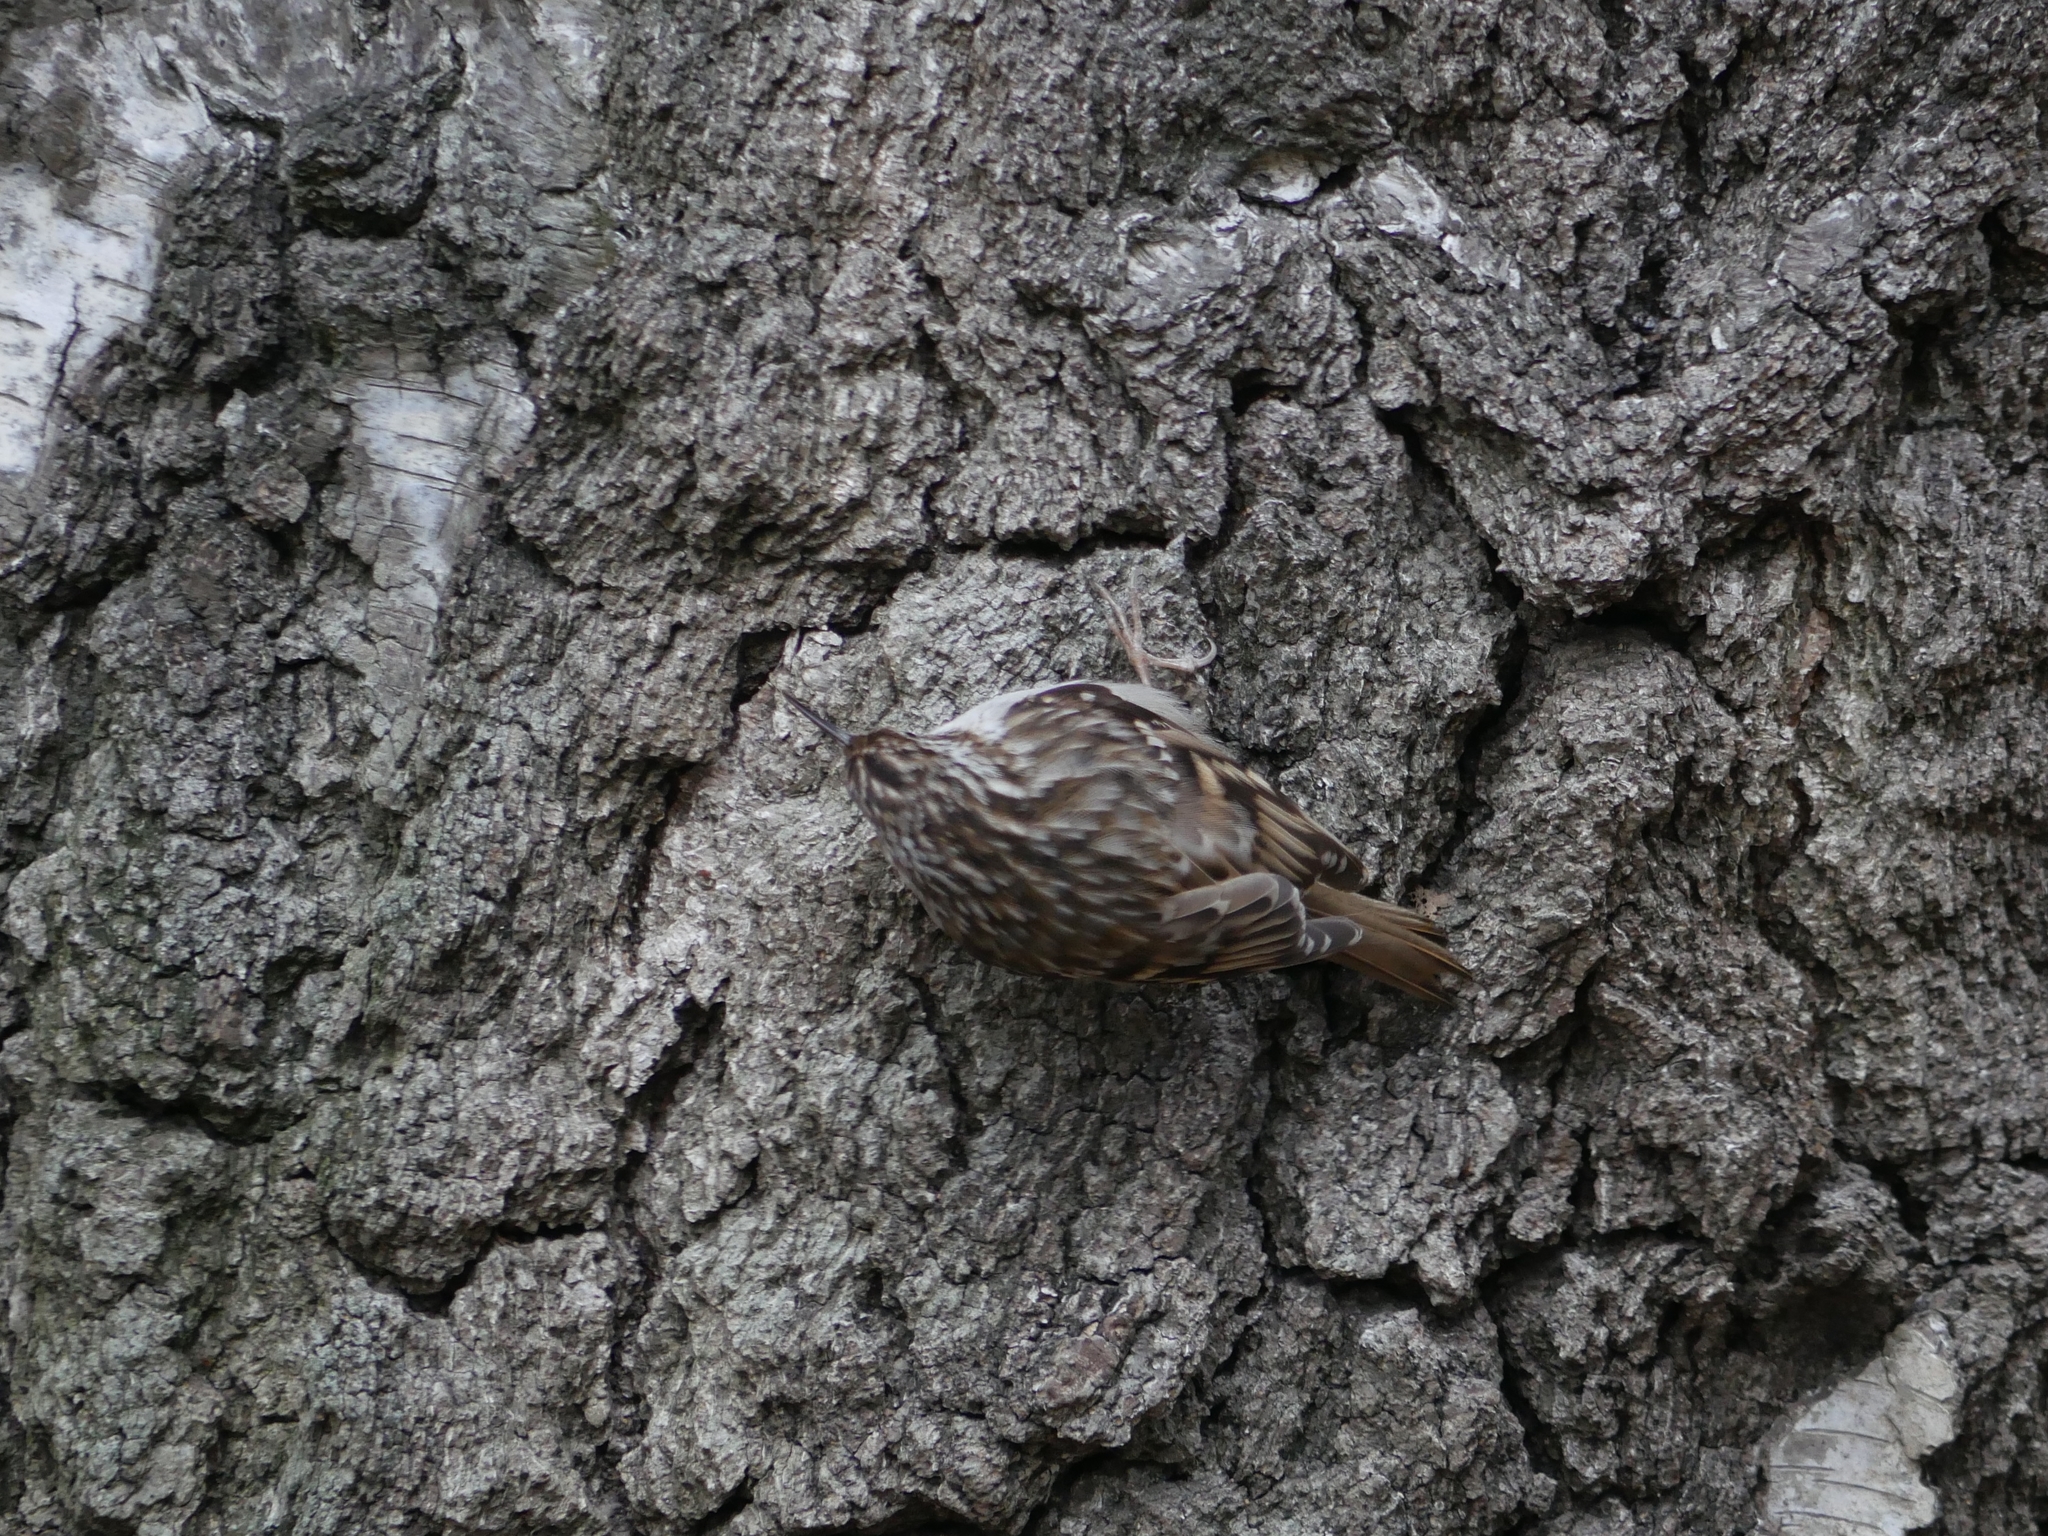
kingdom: Animalia
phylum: Chordata
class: Aves
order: Passeriformes
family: Certhiidae
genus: Certhia
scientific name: Certhia brachydactyla
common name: Short-toed treecreeper
